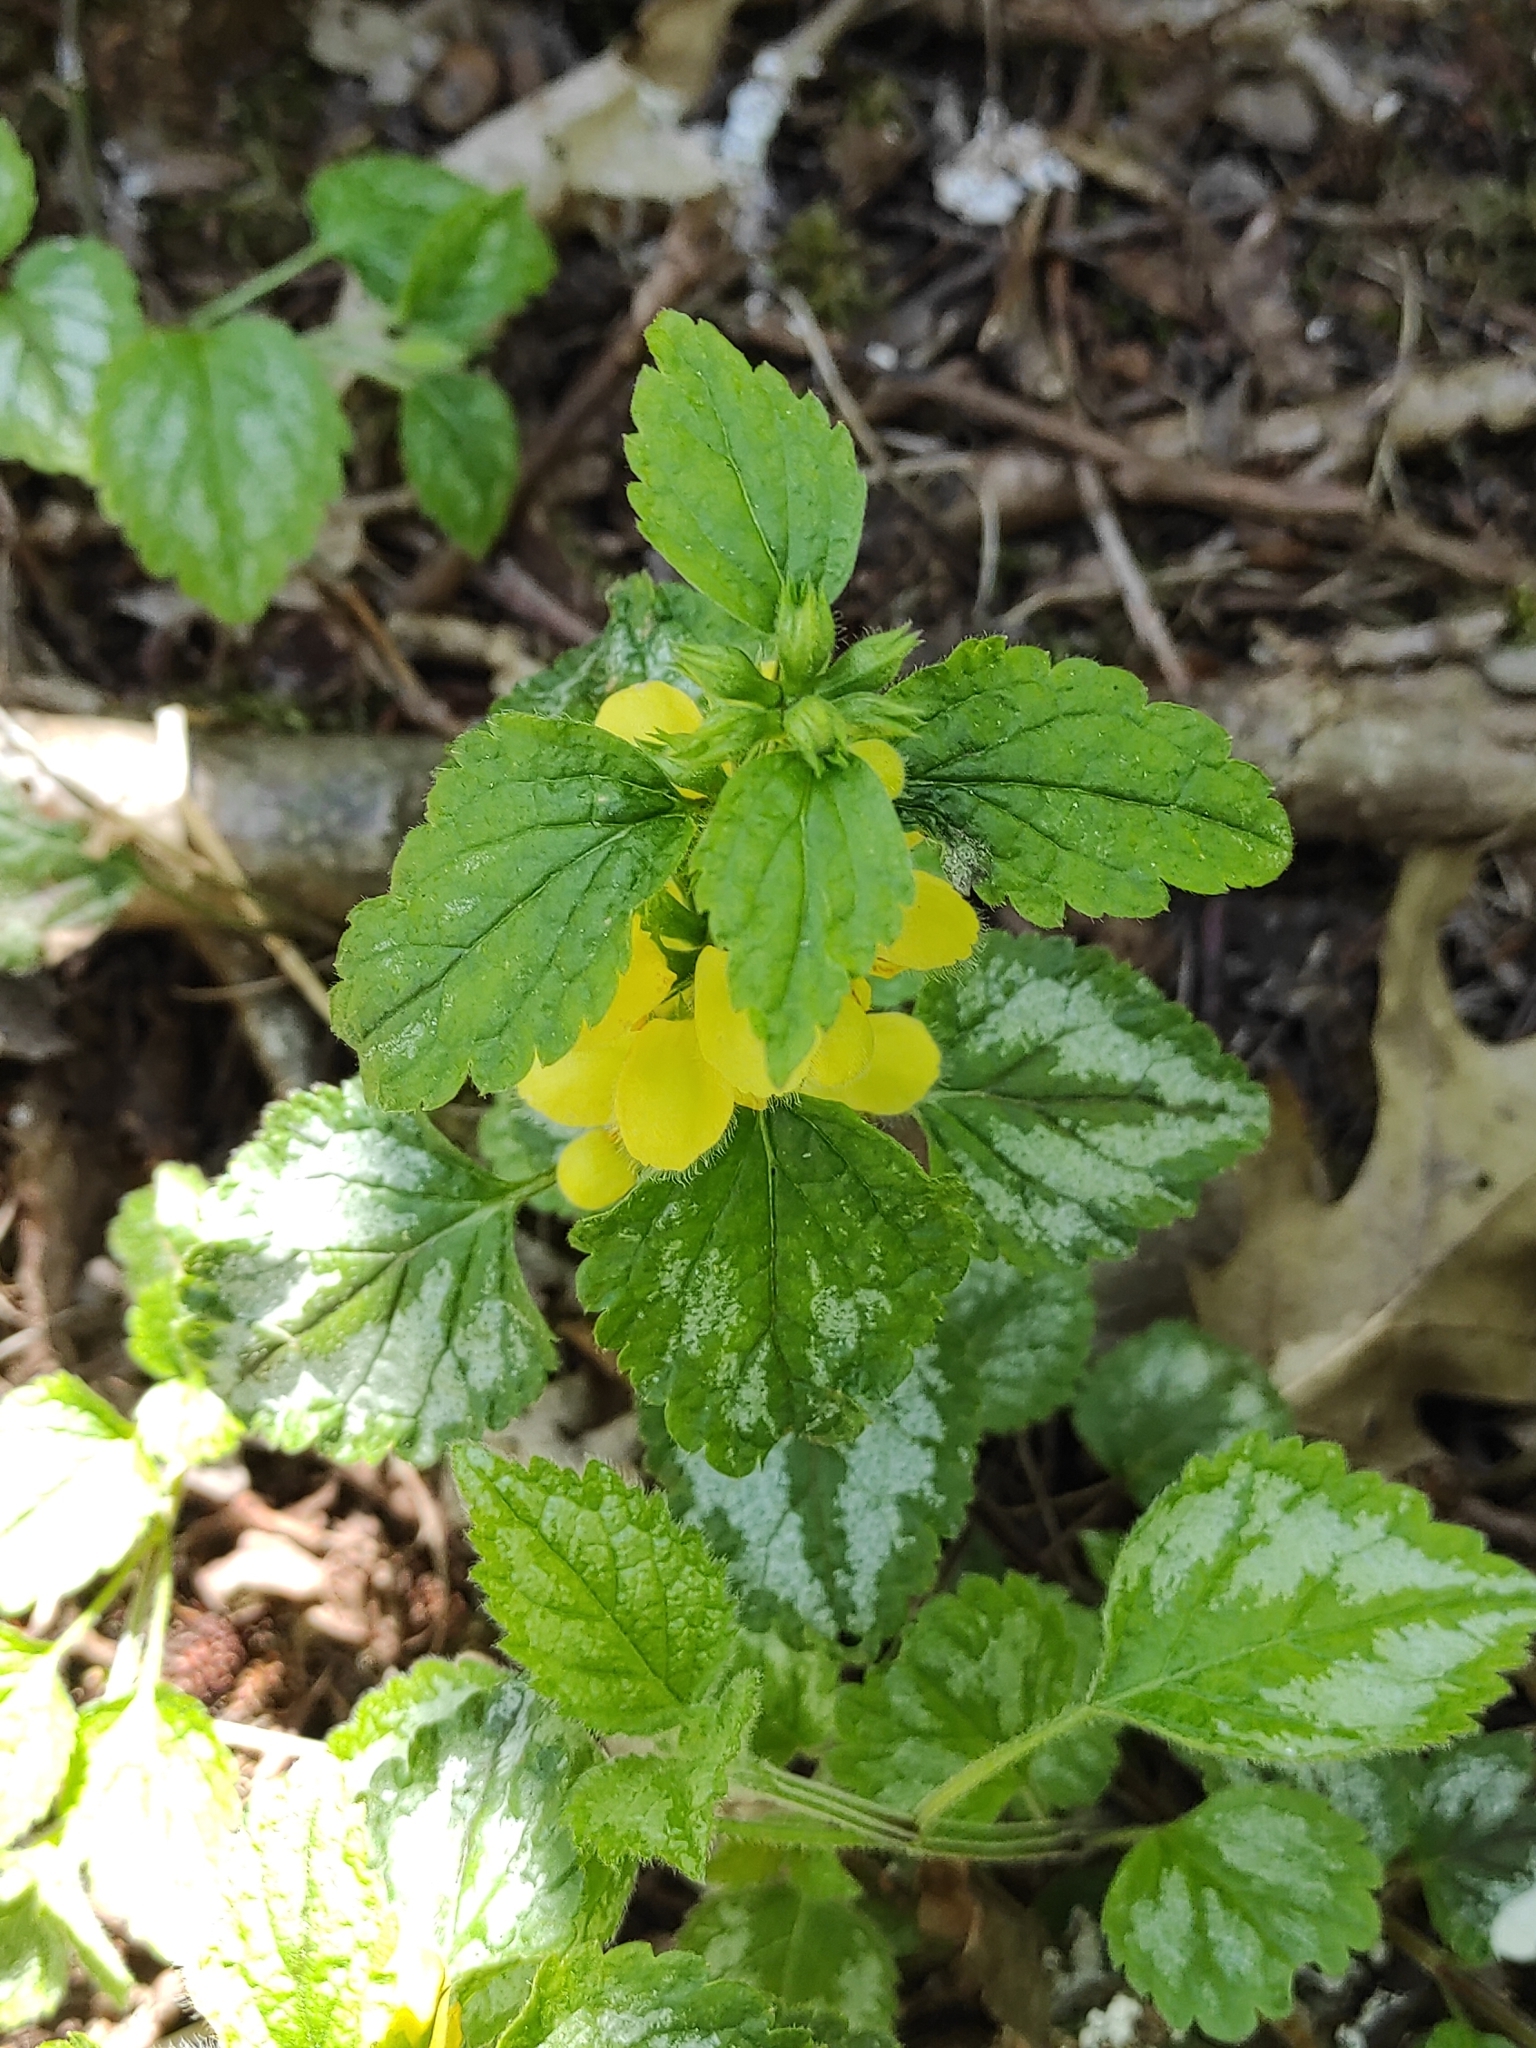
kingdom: Plantae
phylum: Tracheophyta
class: Magnoliopsida
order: Lamiales
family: Lamiaceae
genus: Lamium
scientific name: Lamium galeobdolon
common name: Yellow archangel
